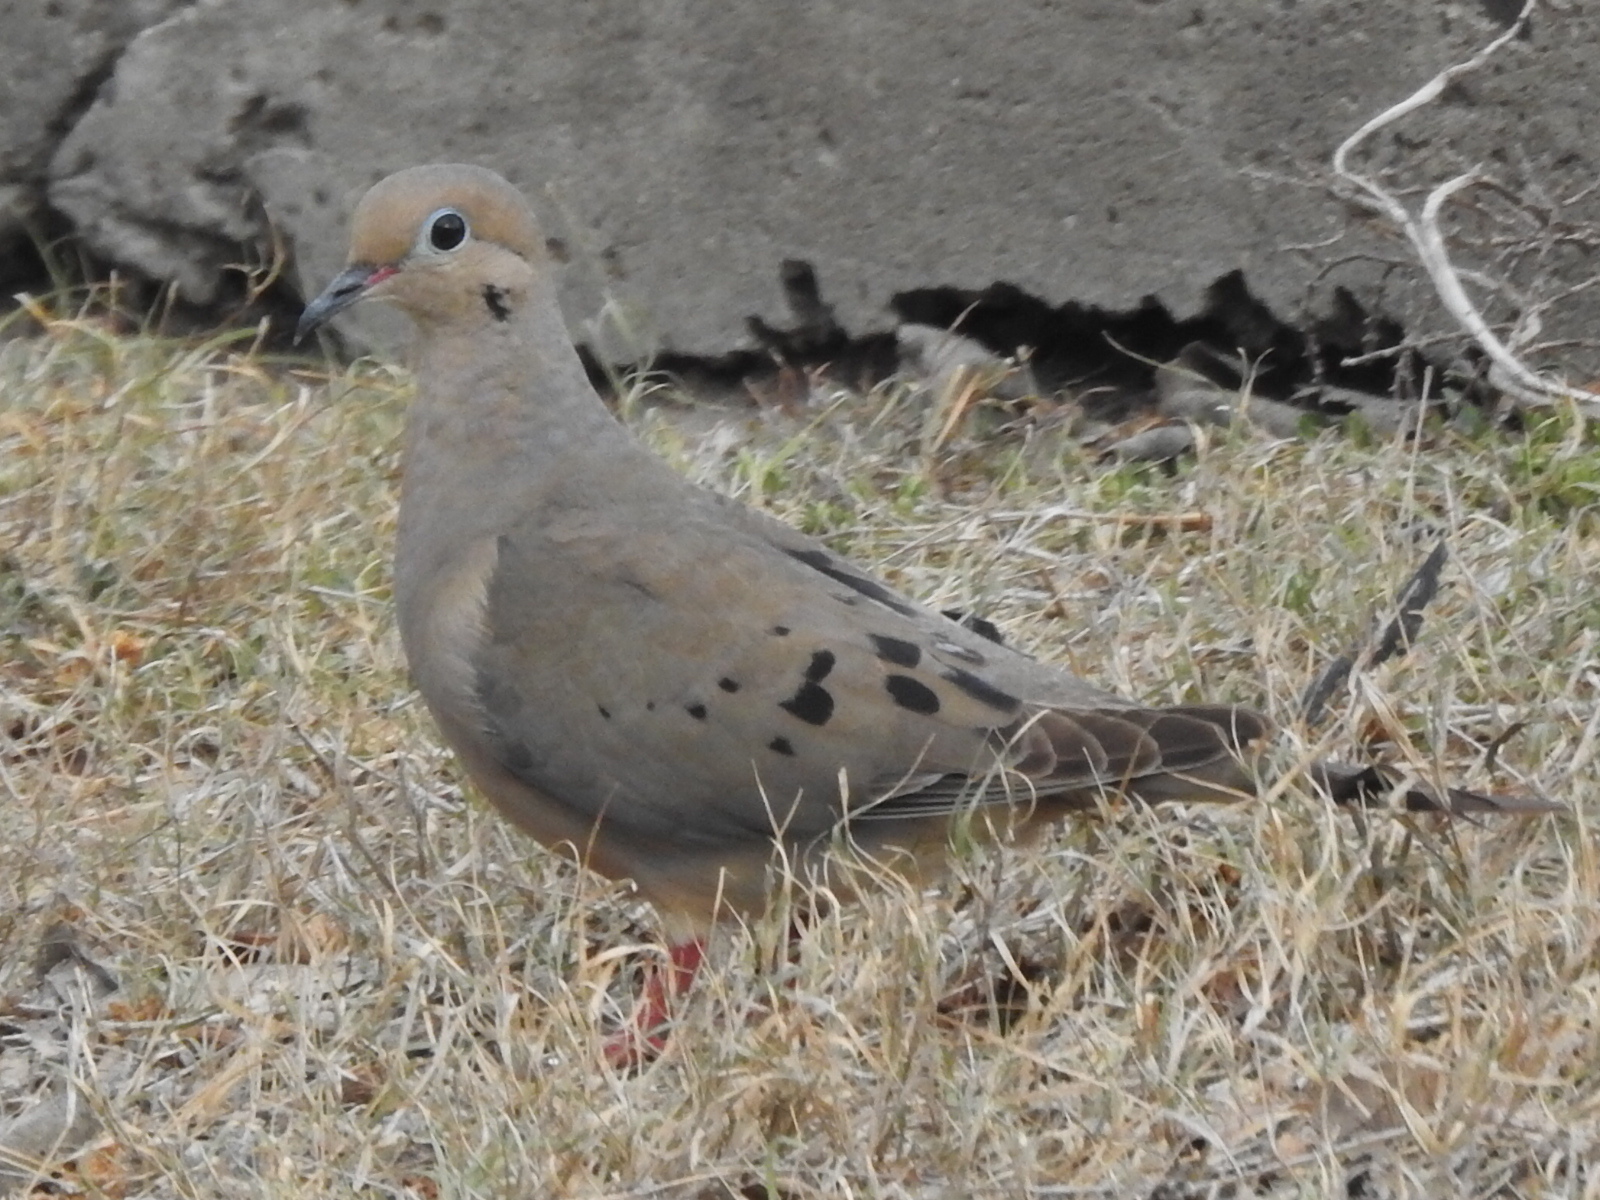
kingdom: Animalia
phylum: Chordata
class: Aves
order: Columbiformes
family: Columbidae
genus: Zenaida
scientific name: Zenaida macroura
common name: Mourning dove
